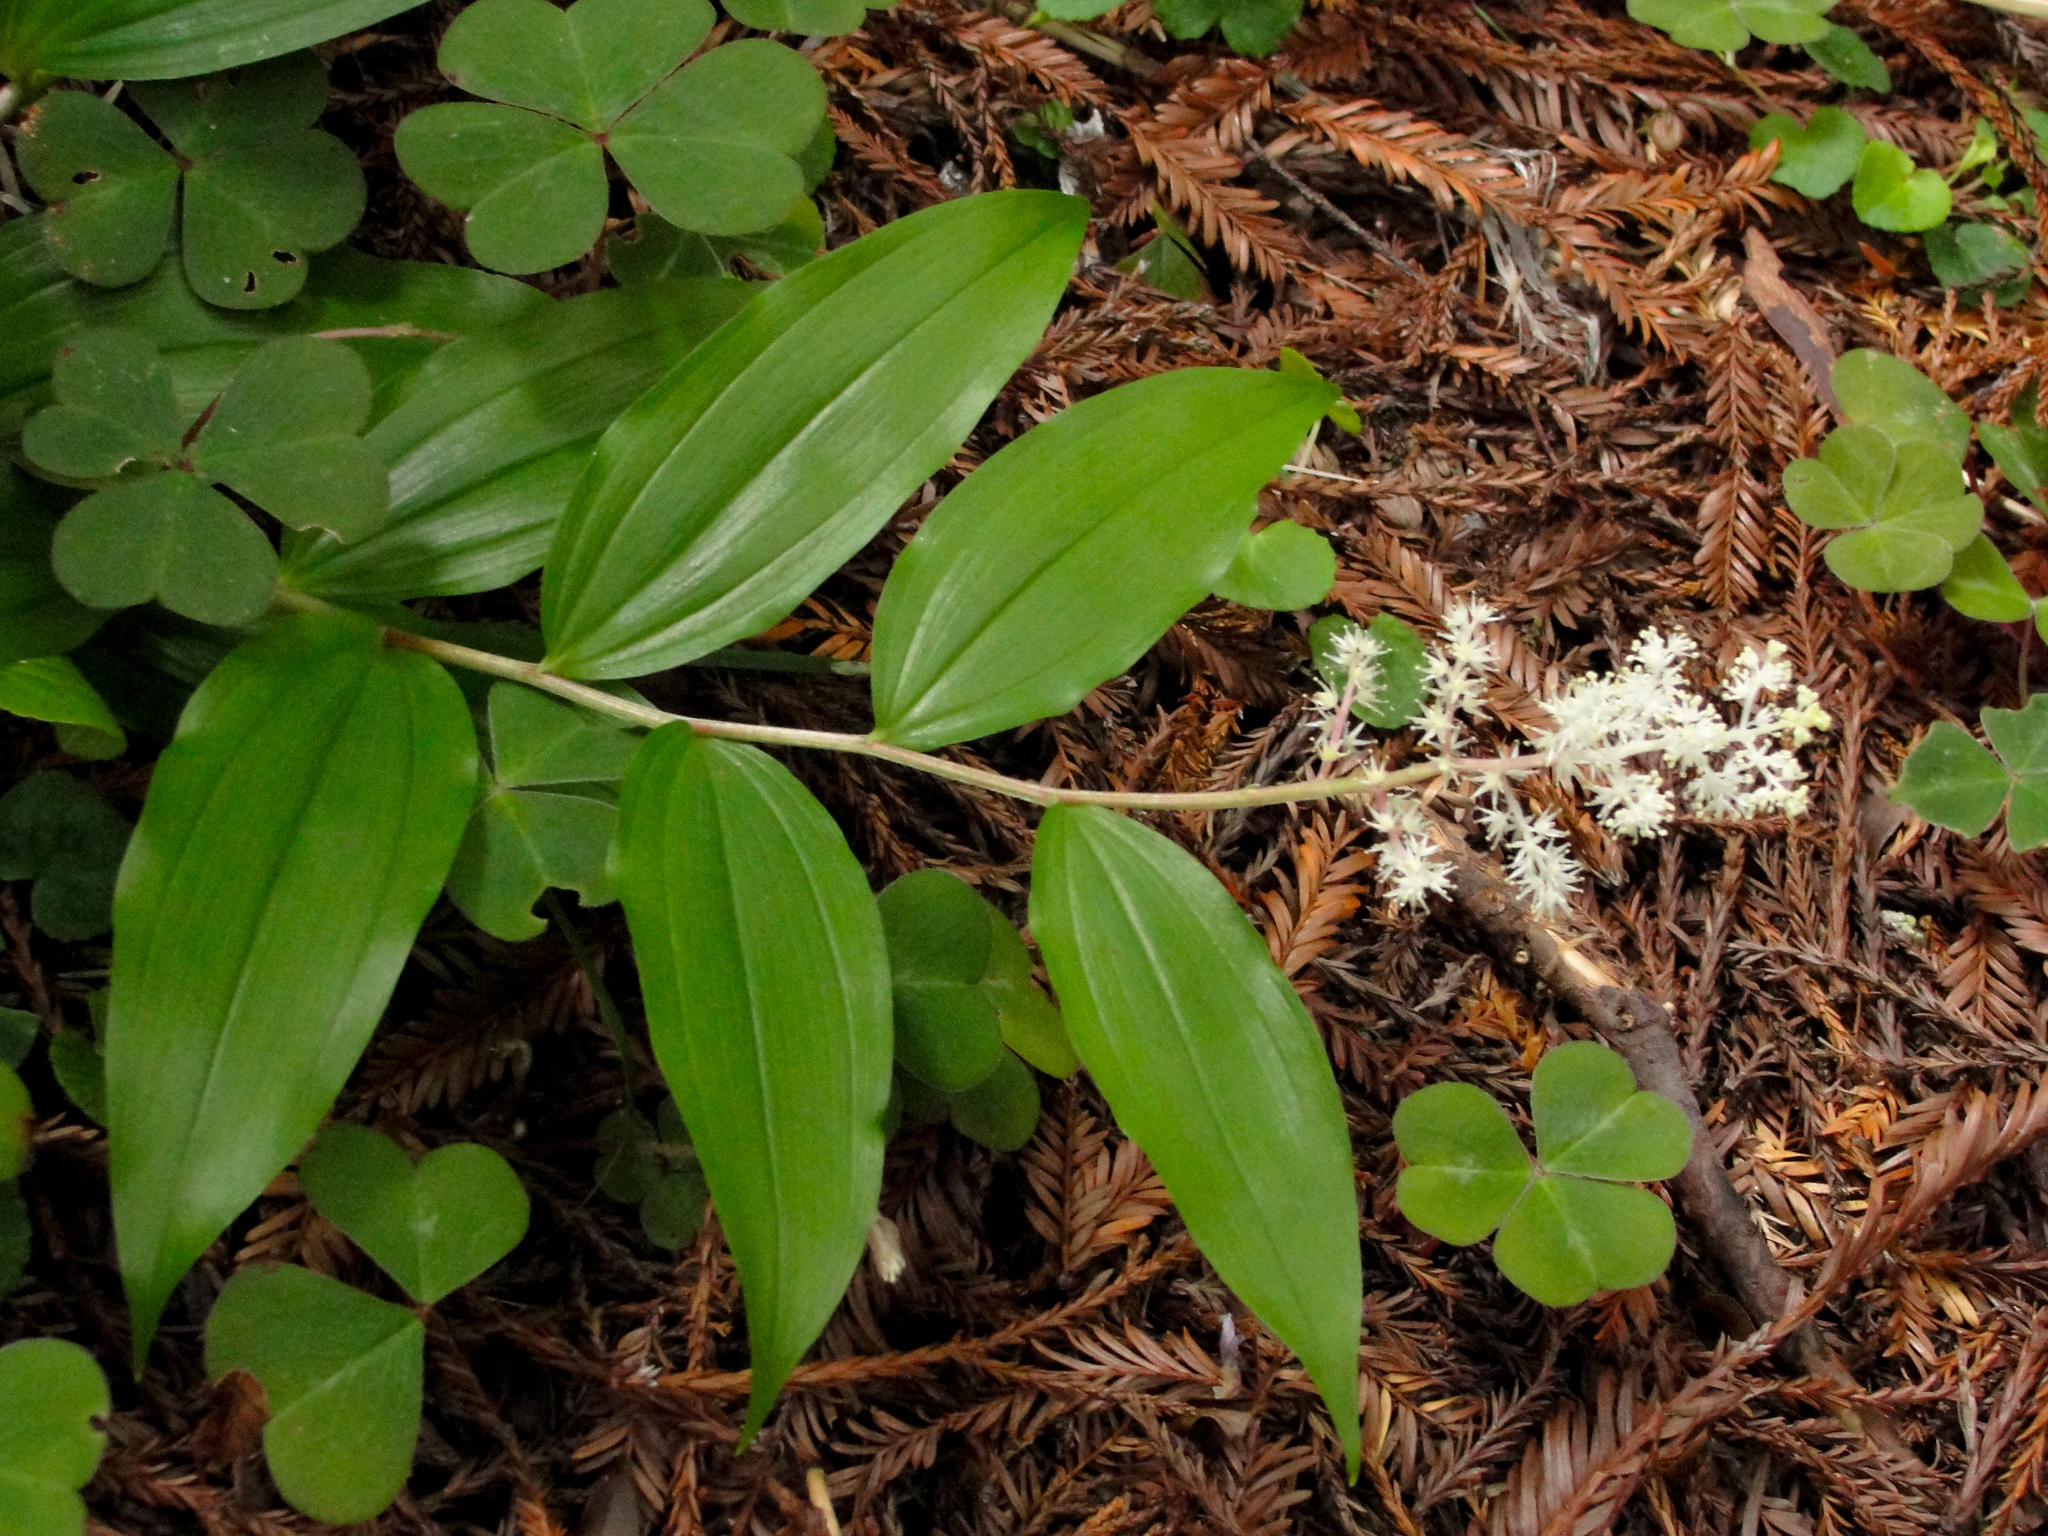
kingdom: Plantae
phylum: Tracheophyta
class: Liliopsida
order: Asparagales
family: Asparagaceae
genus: Maianthemum
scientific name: Maianthemum racemosum
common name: False spikenard
